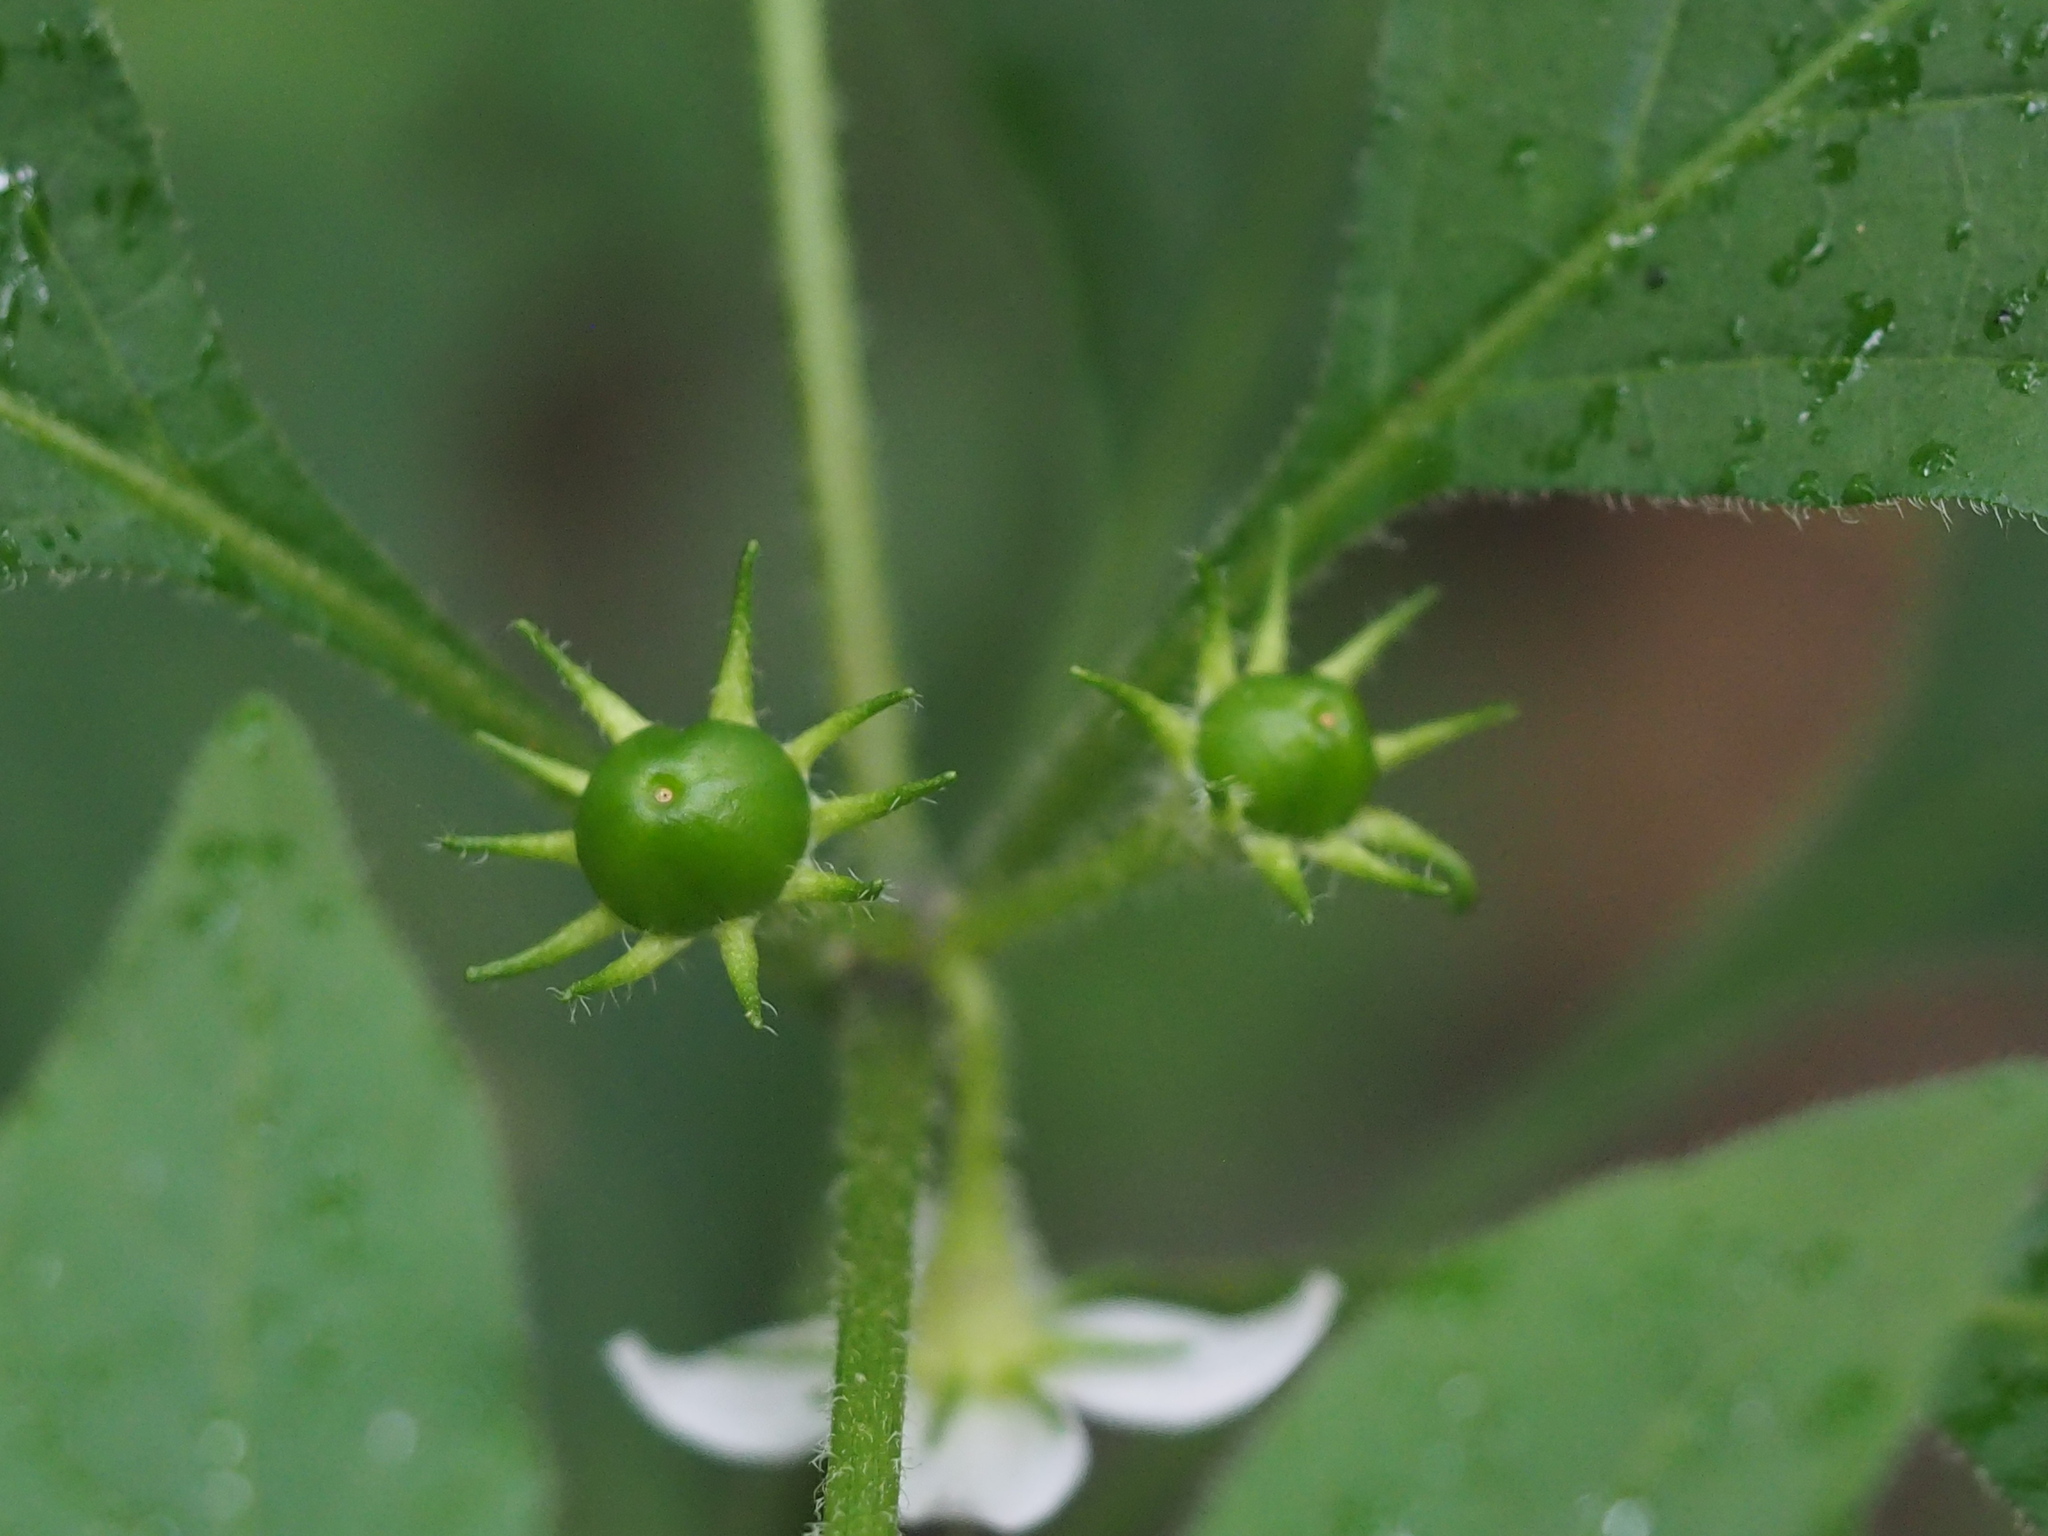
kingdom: Plantae
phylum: Tracheophyta
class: Magnoliopsida
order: Solanales
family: Solanaceae
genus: Lycianthes
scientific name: Lycianthes biflora
